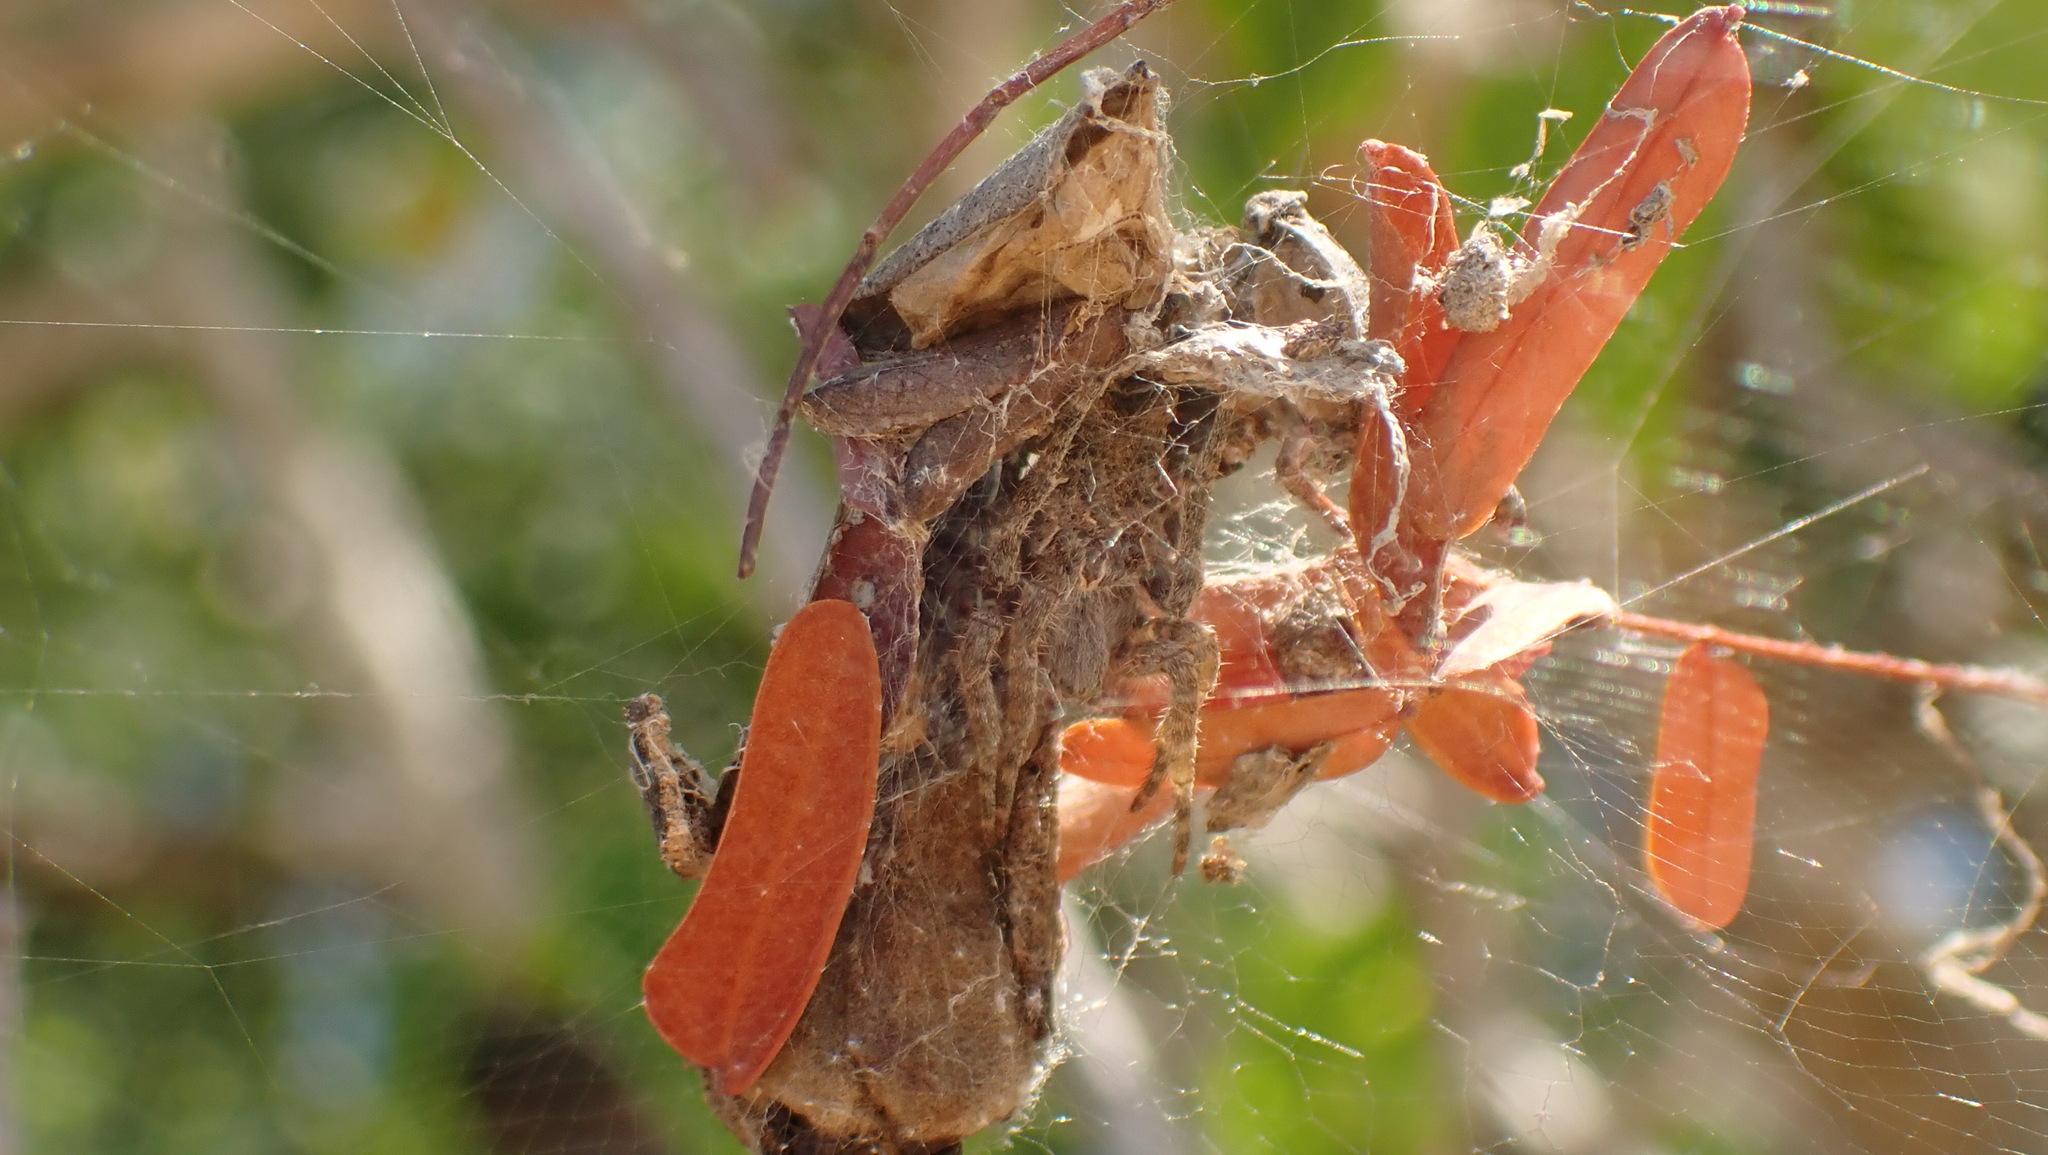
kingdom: Animalia
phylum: Arthropoda
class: Arachnida
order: Araneae
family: Araneidae
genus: Cyrtophora
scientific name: Cyrtophora citricola
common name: Orb weavers
